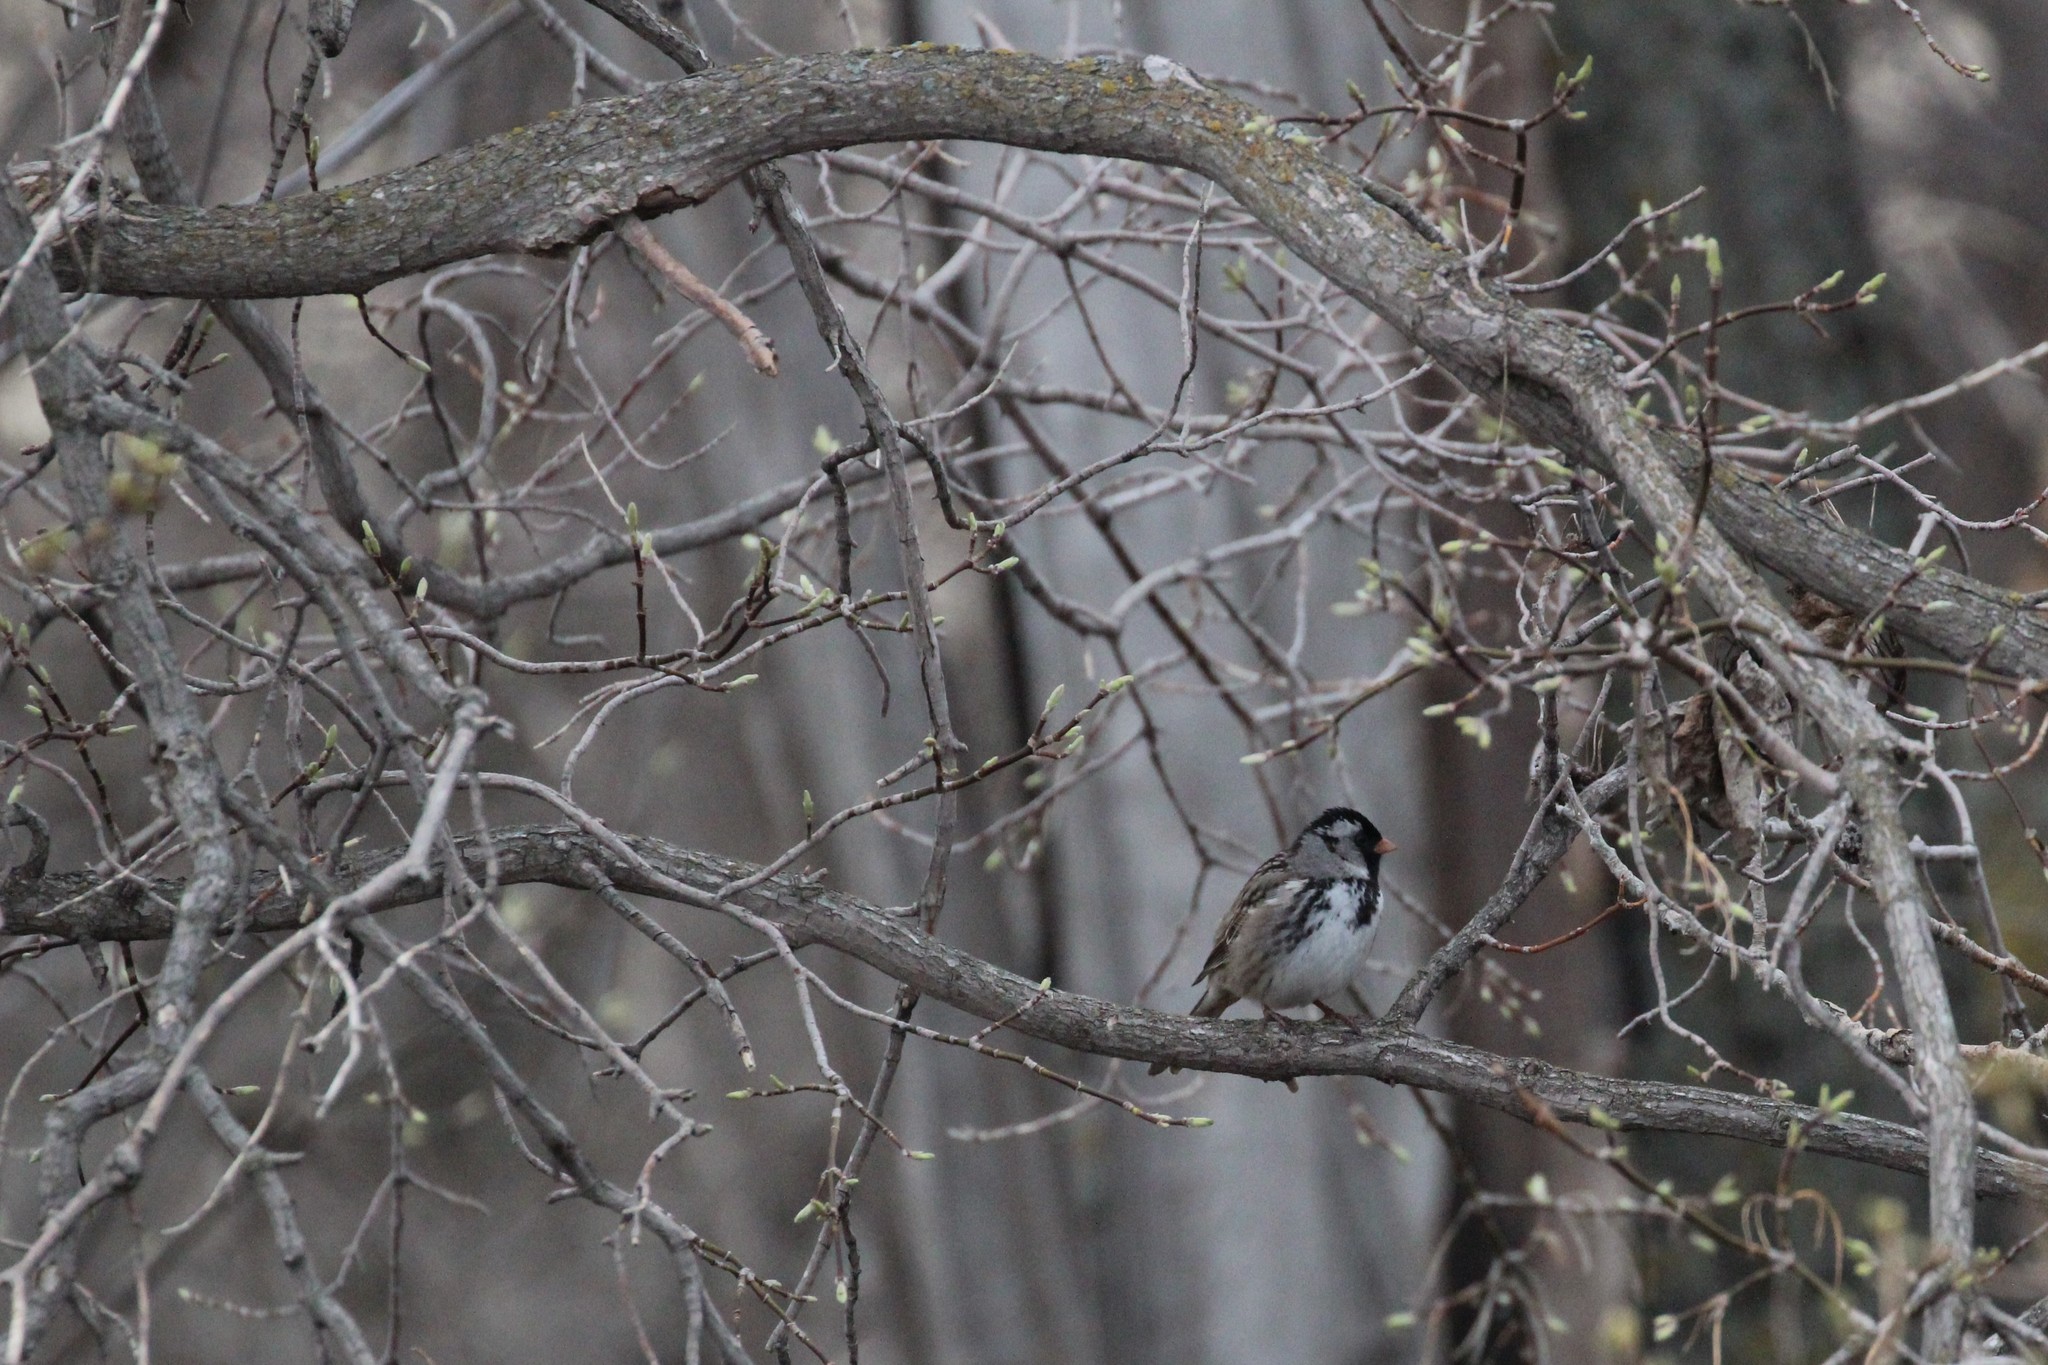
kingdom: Animalia
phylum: Chordata
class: Aves
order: Passeriformes
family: Passerellidae
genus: Zonotrichia
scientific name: Zonotrichia querula
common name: Harris's sparrow
